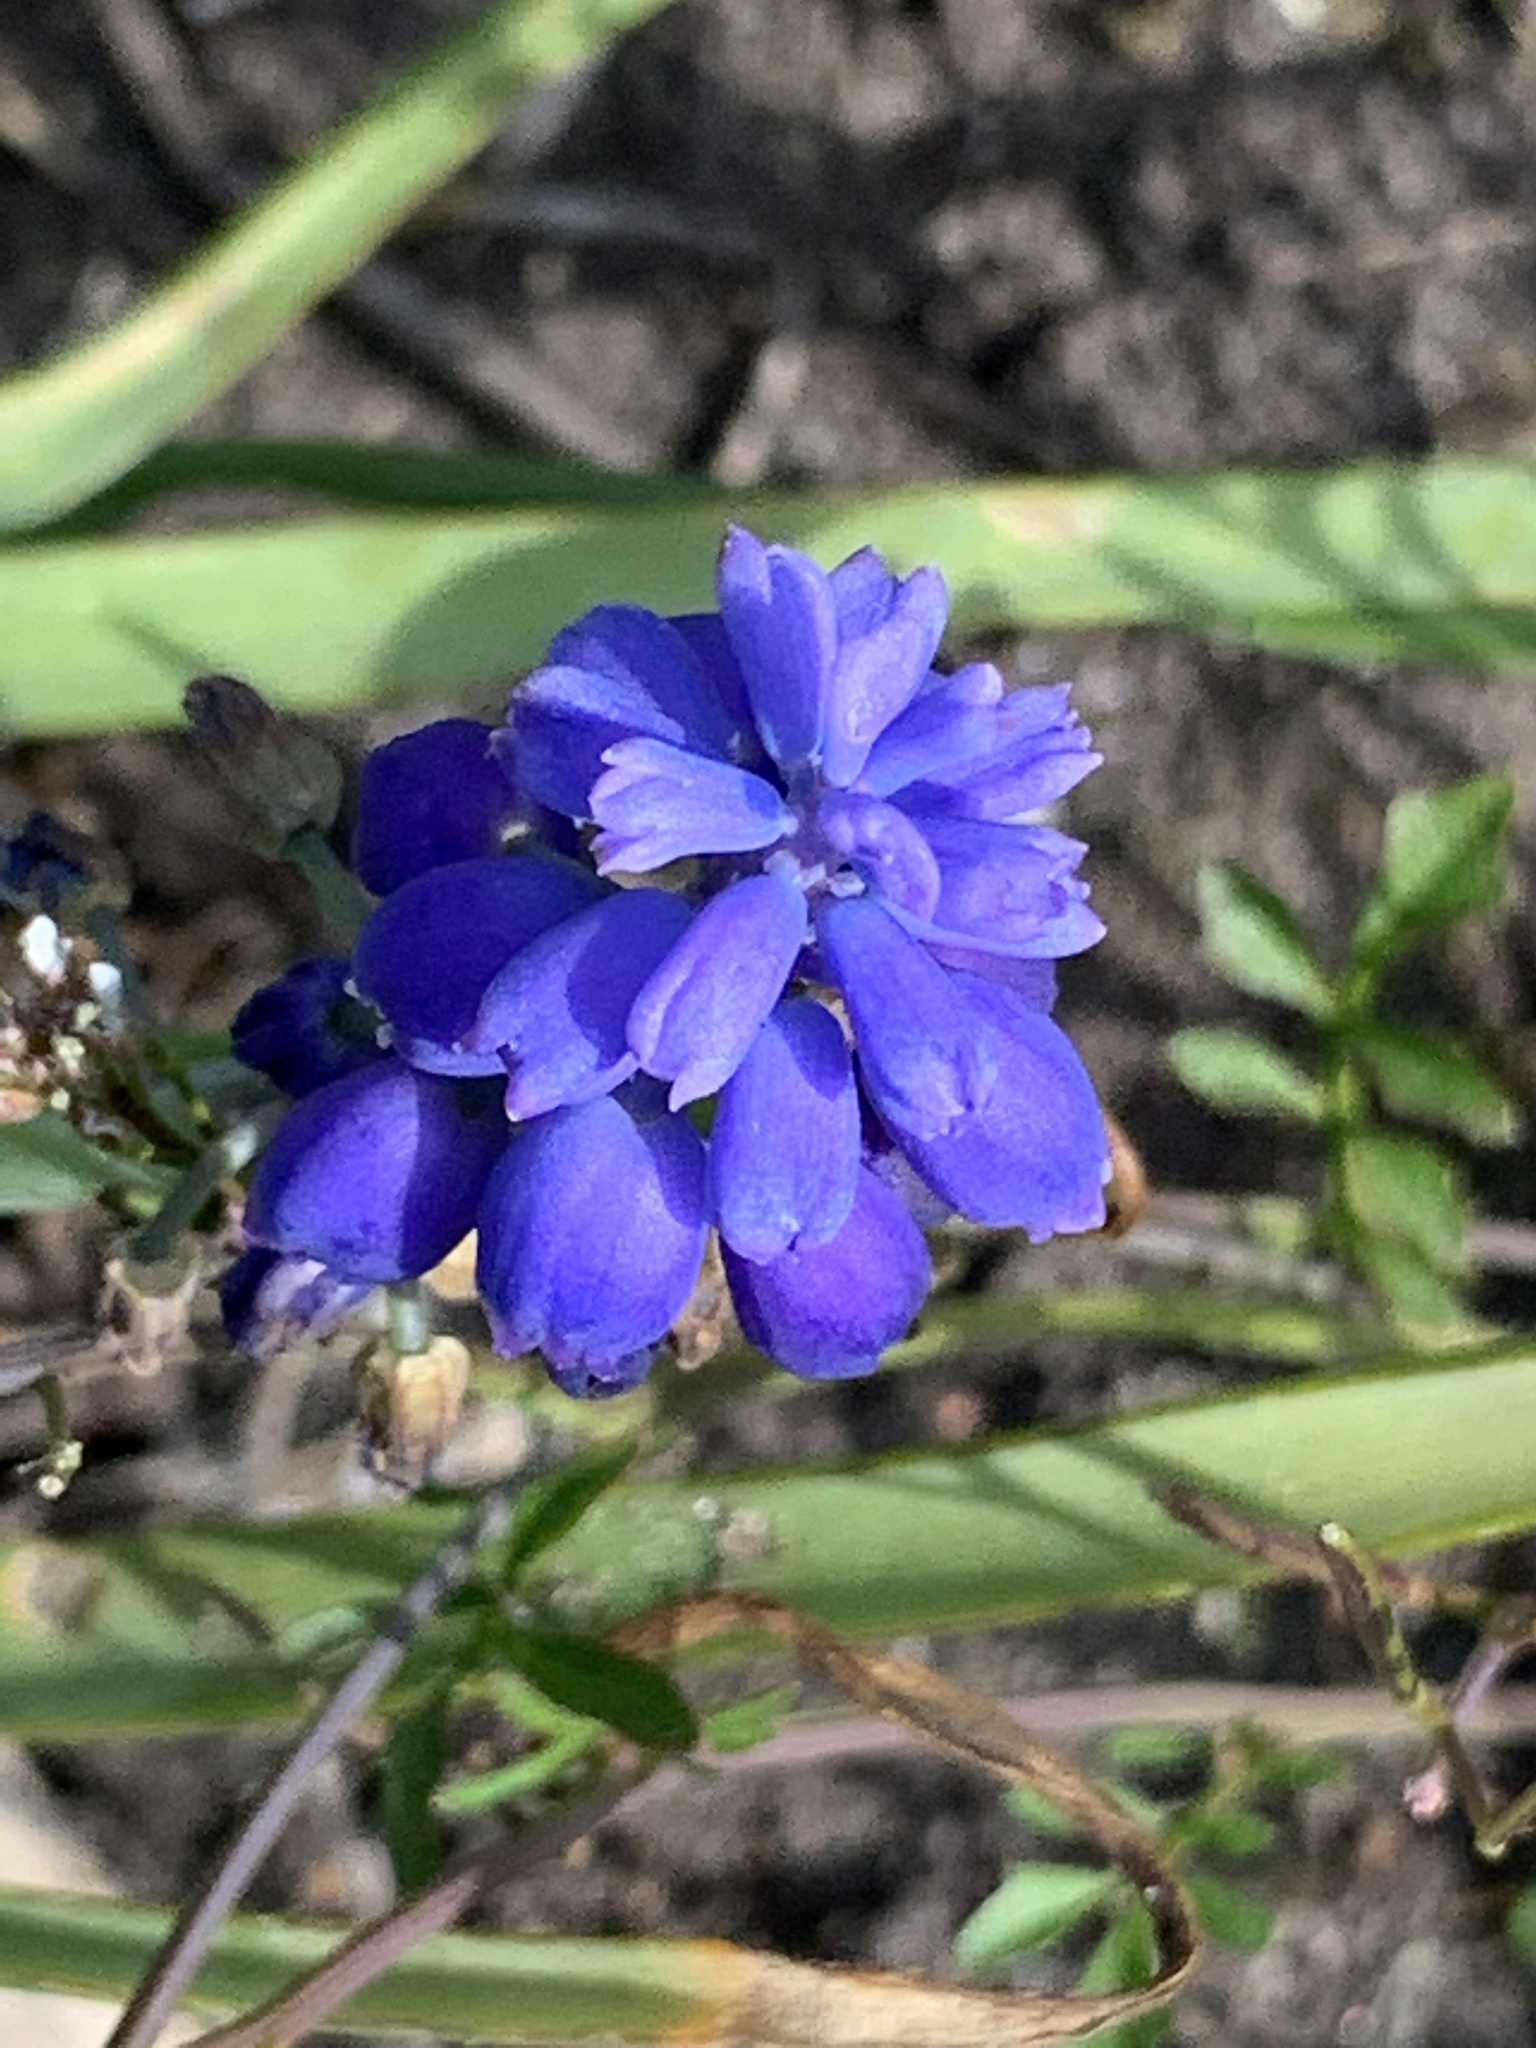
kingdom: Plantae
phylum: Tracheophyta
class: Liliopsida
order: Asparagales
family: Asparagaceae
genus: Muscari
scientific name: Muscari armeniacum
